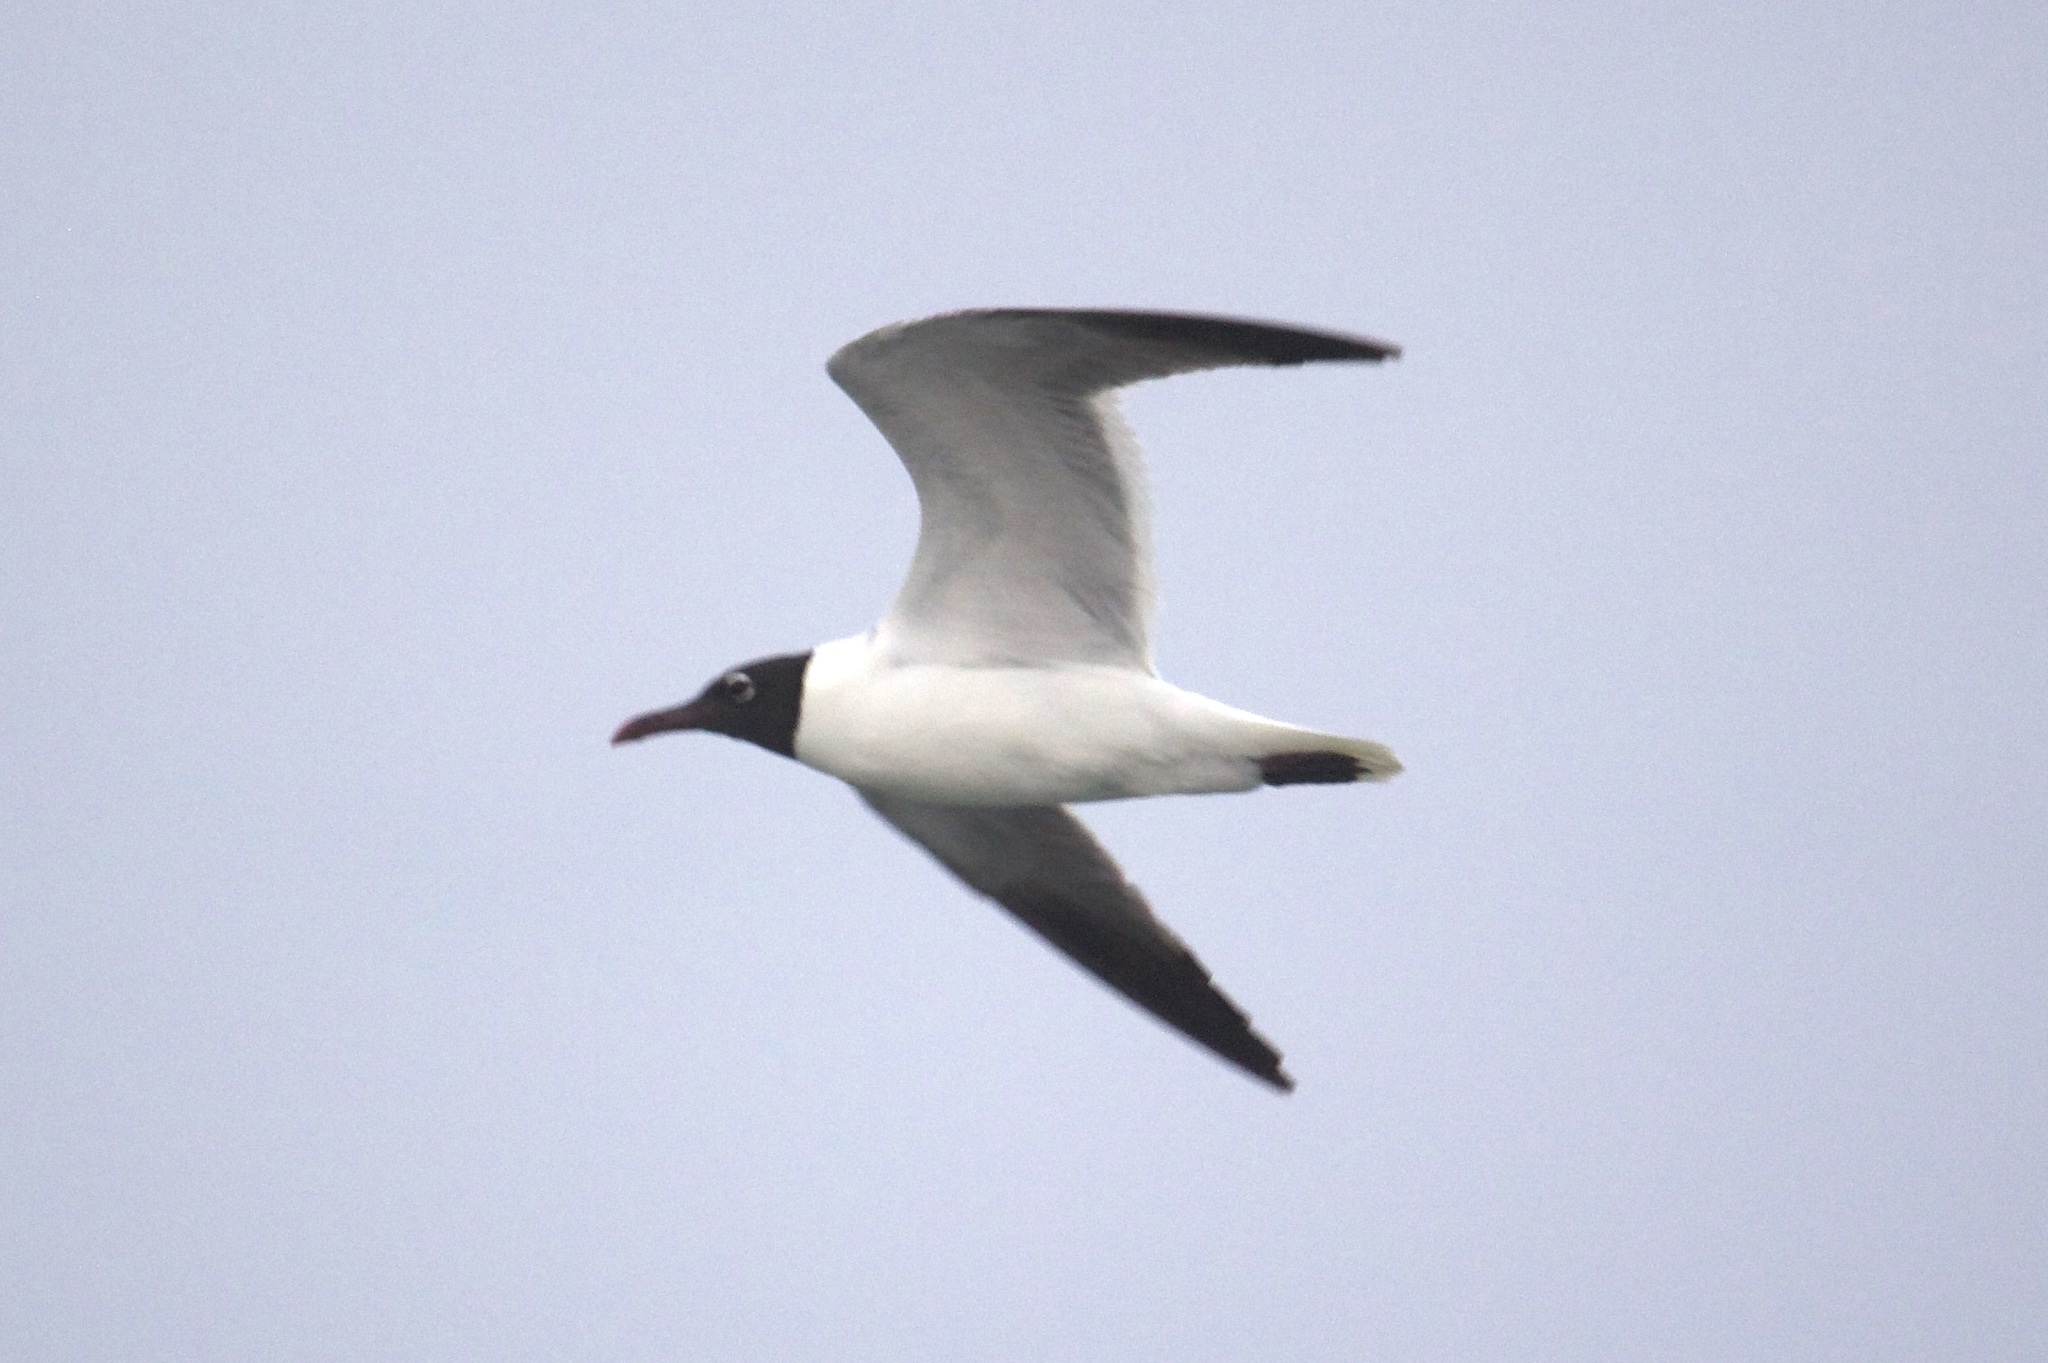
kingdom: Animalia
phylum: Chordata
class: Aves
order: Charadriiformes
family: Laridae
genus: Leucophaeus
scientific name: Leucophaeus atricilla
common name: Laughing gull
